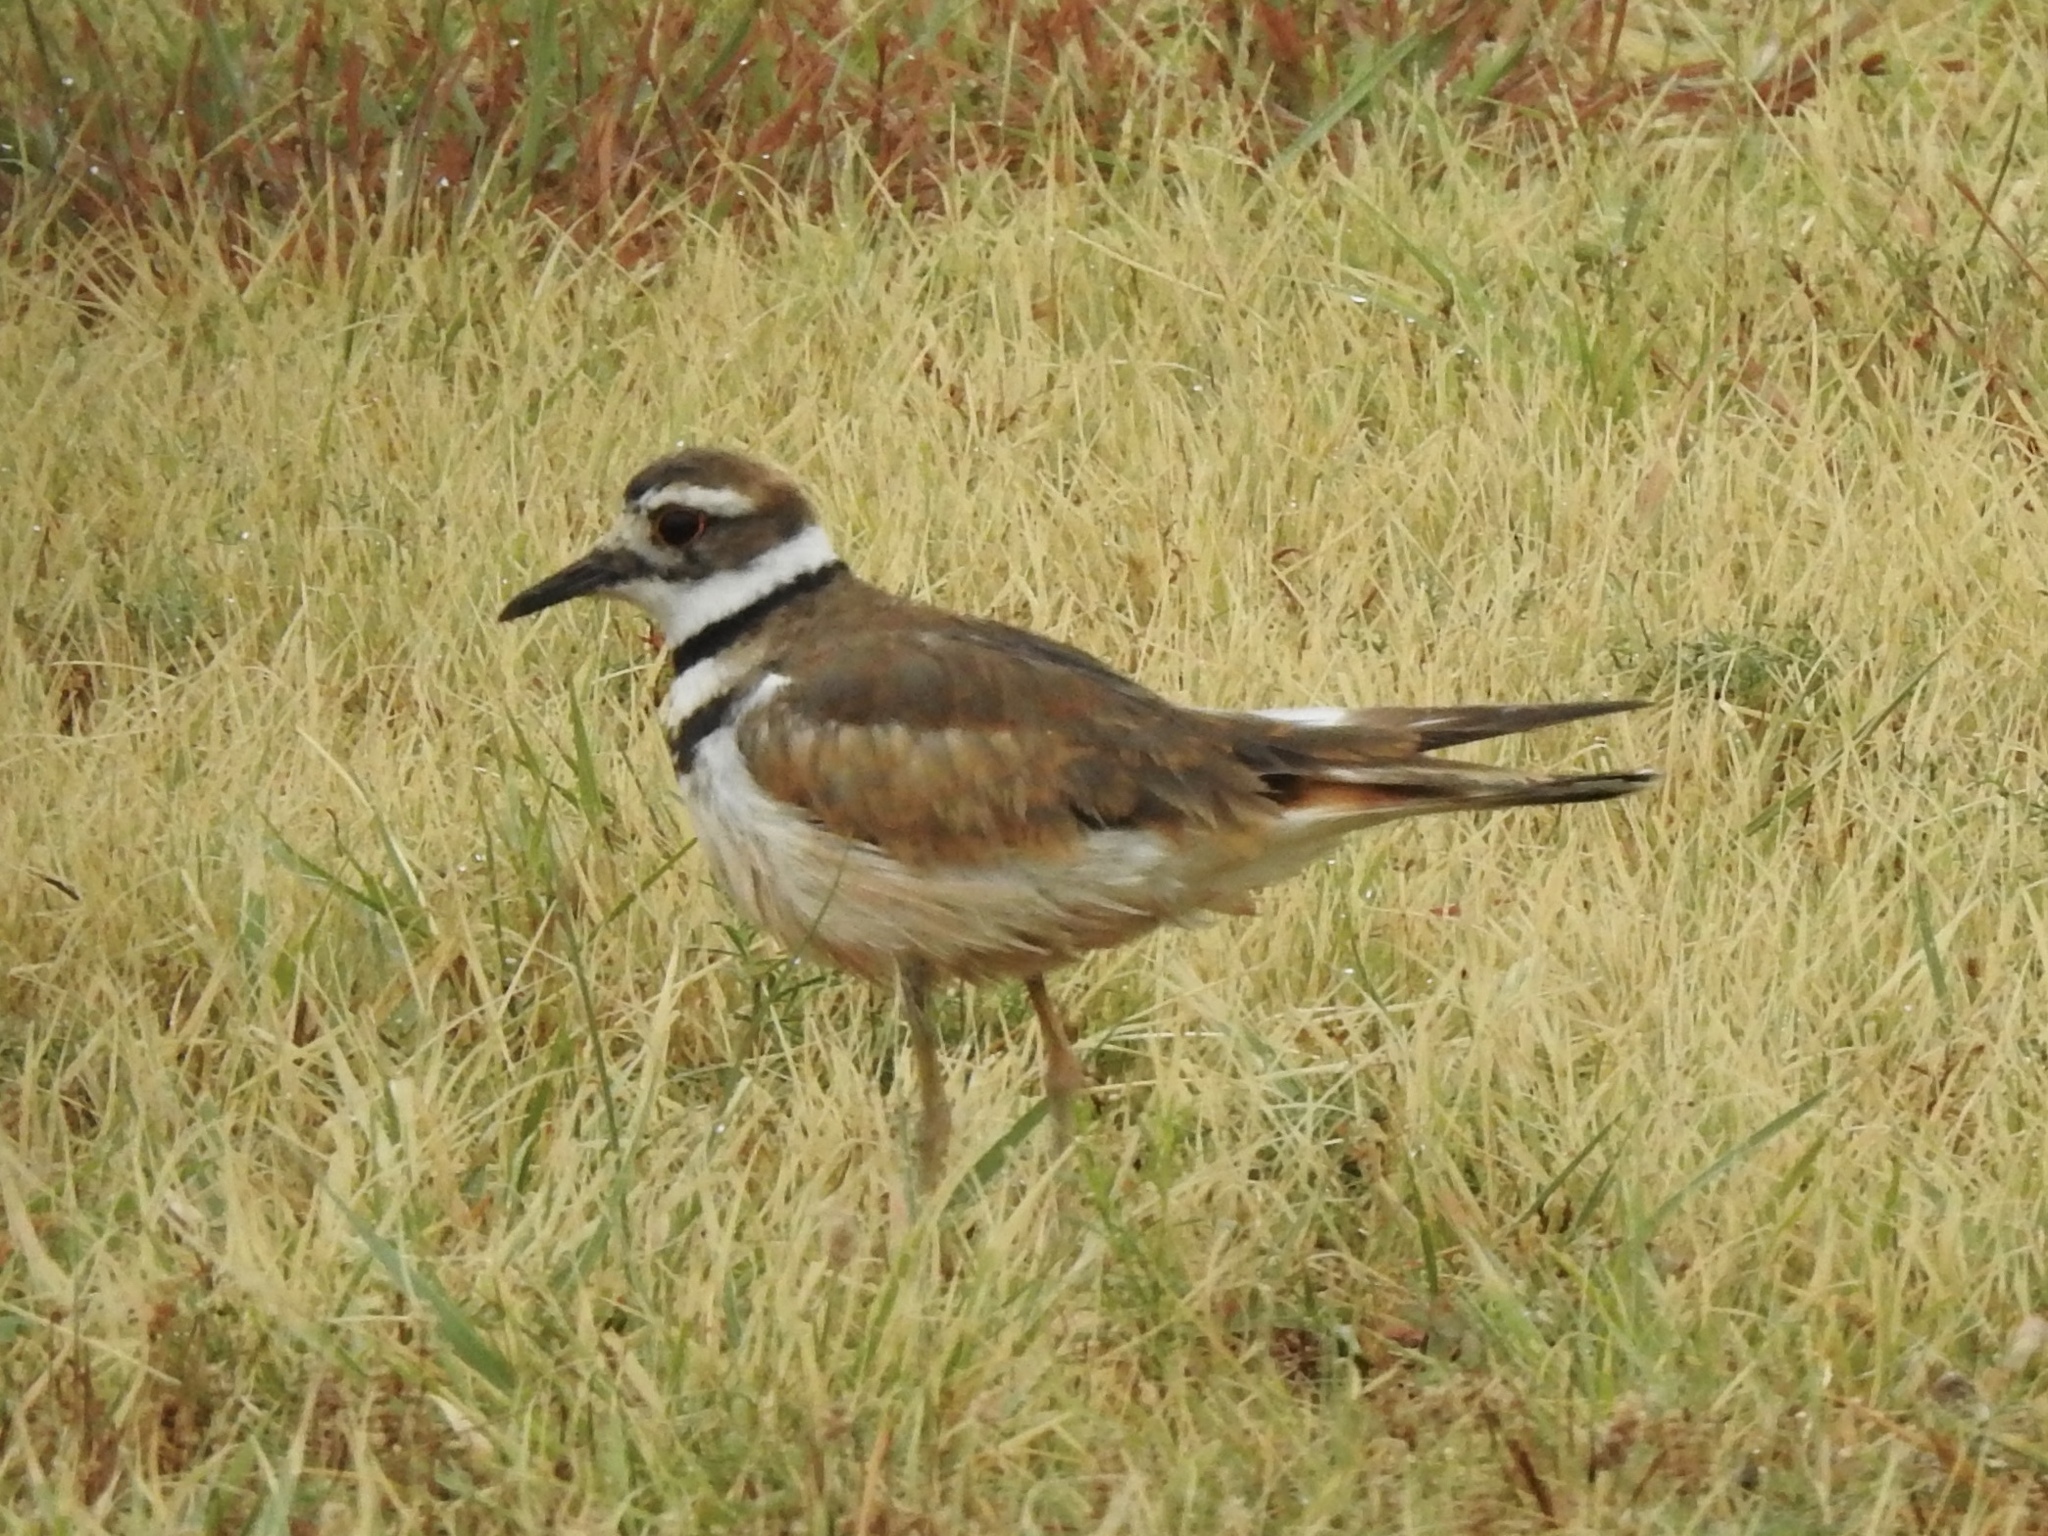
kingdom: Animalia
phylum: Chordata
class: Aves
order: Charadriiformes
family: Charadriidae
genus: Charadrius
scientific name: Charadrius vociferus
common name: Killdeer
